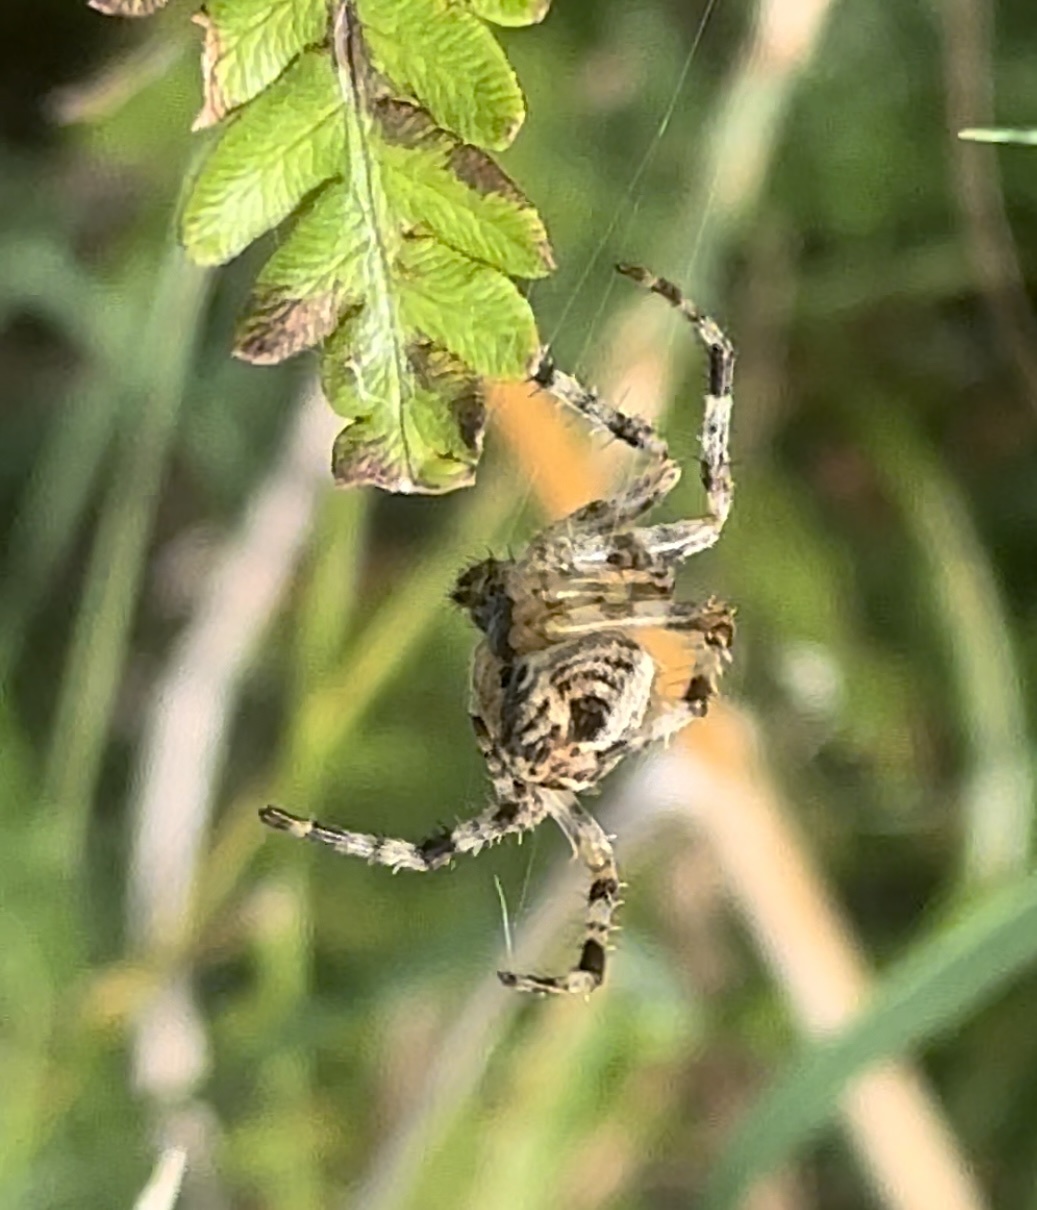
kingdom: Animalia
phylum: Arthropoda
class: Arachnida
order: Araneae
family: Araneidae
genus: Araneus
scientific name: Araneus diadematus
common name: Cross orbweaver
